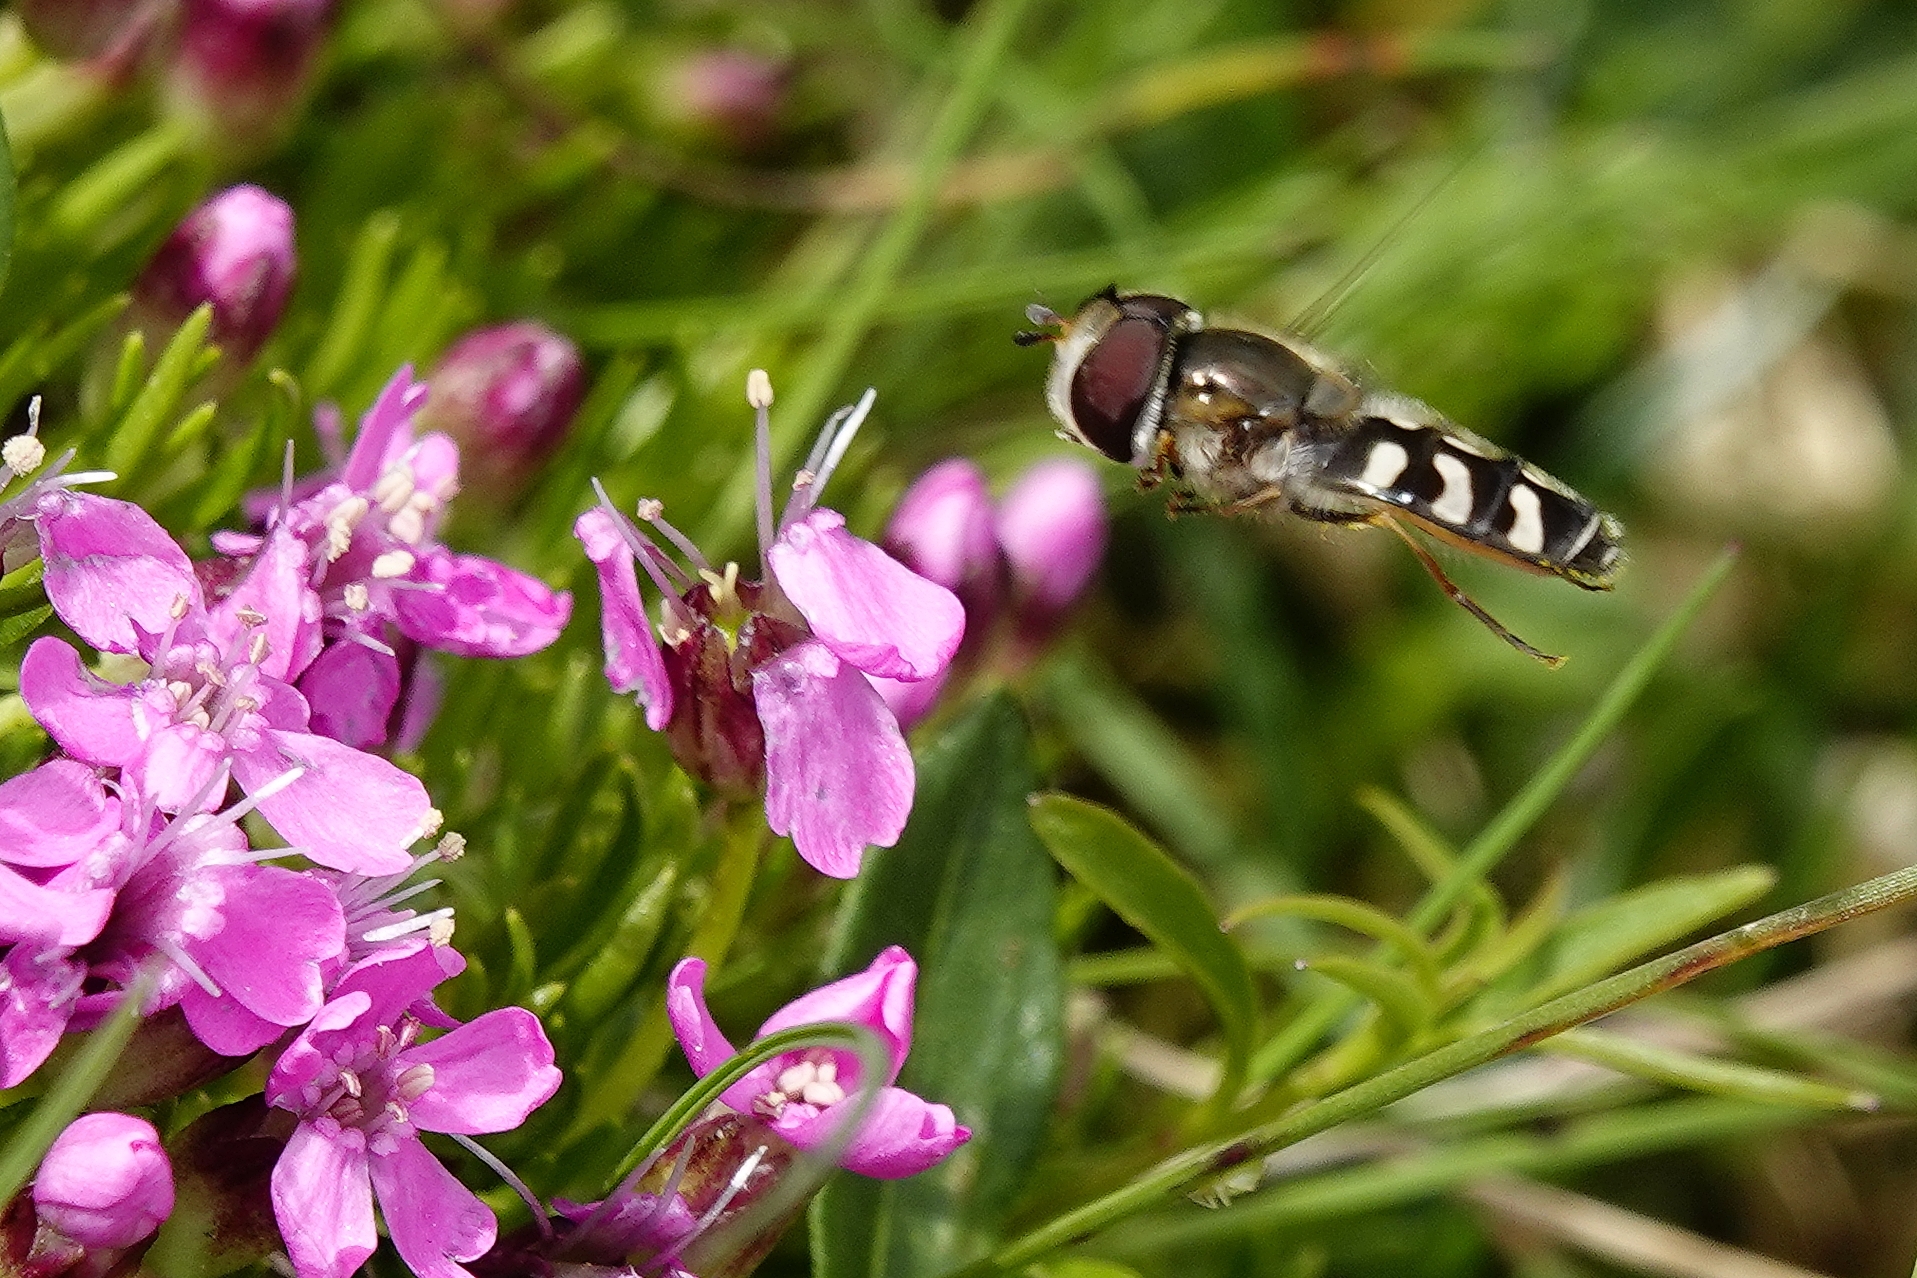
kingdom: Animalia
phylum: Arthropoda
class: Insecta
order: Diptera
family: Syrphidae
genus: Scaeva
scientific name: Scaeva pyrastri
